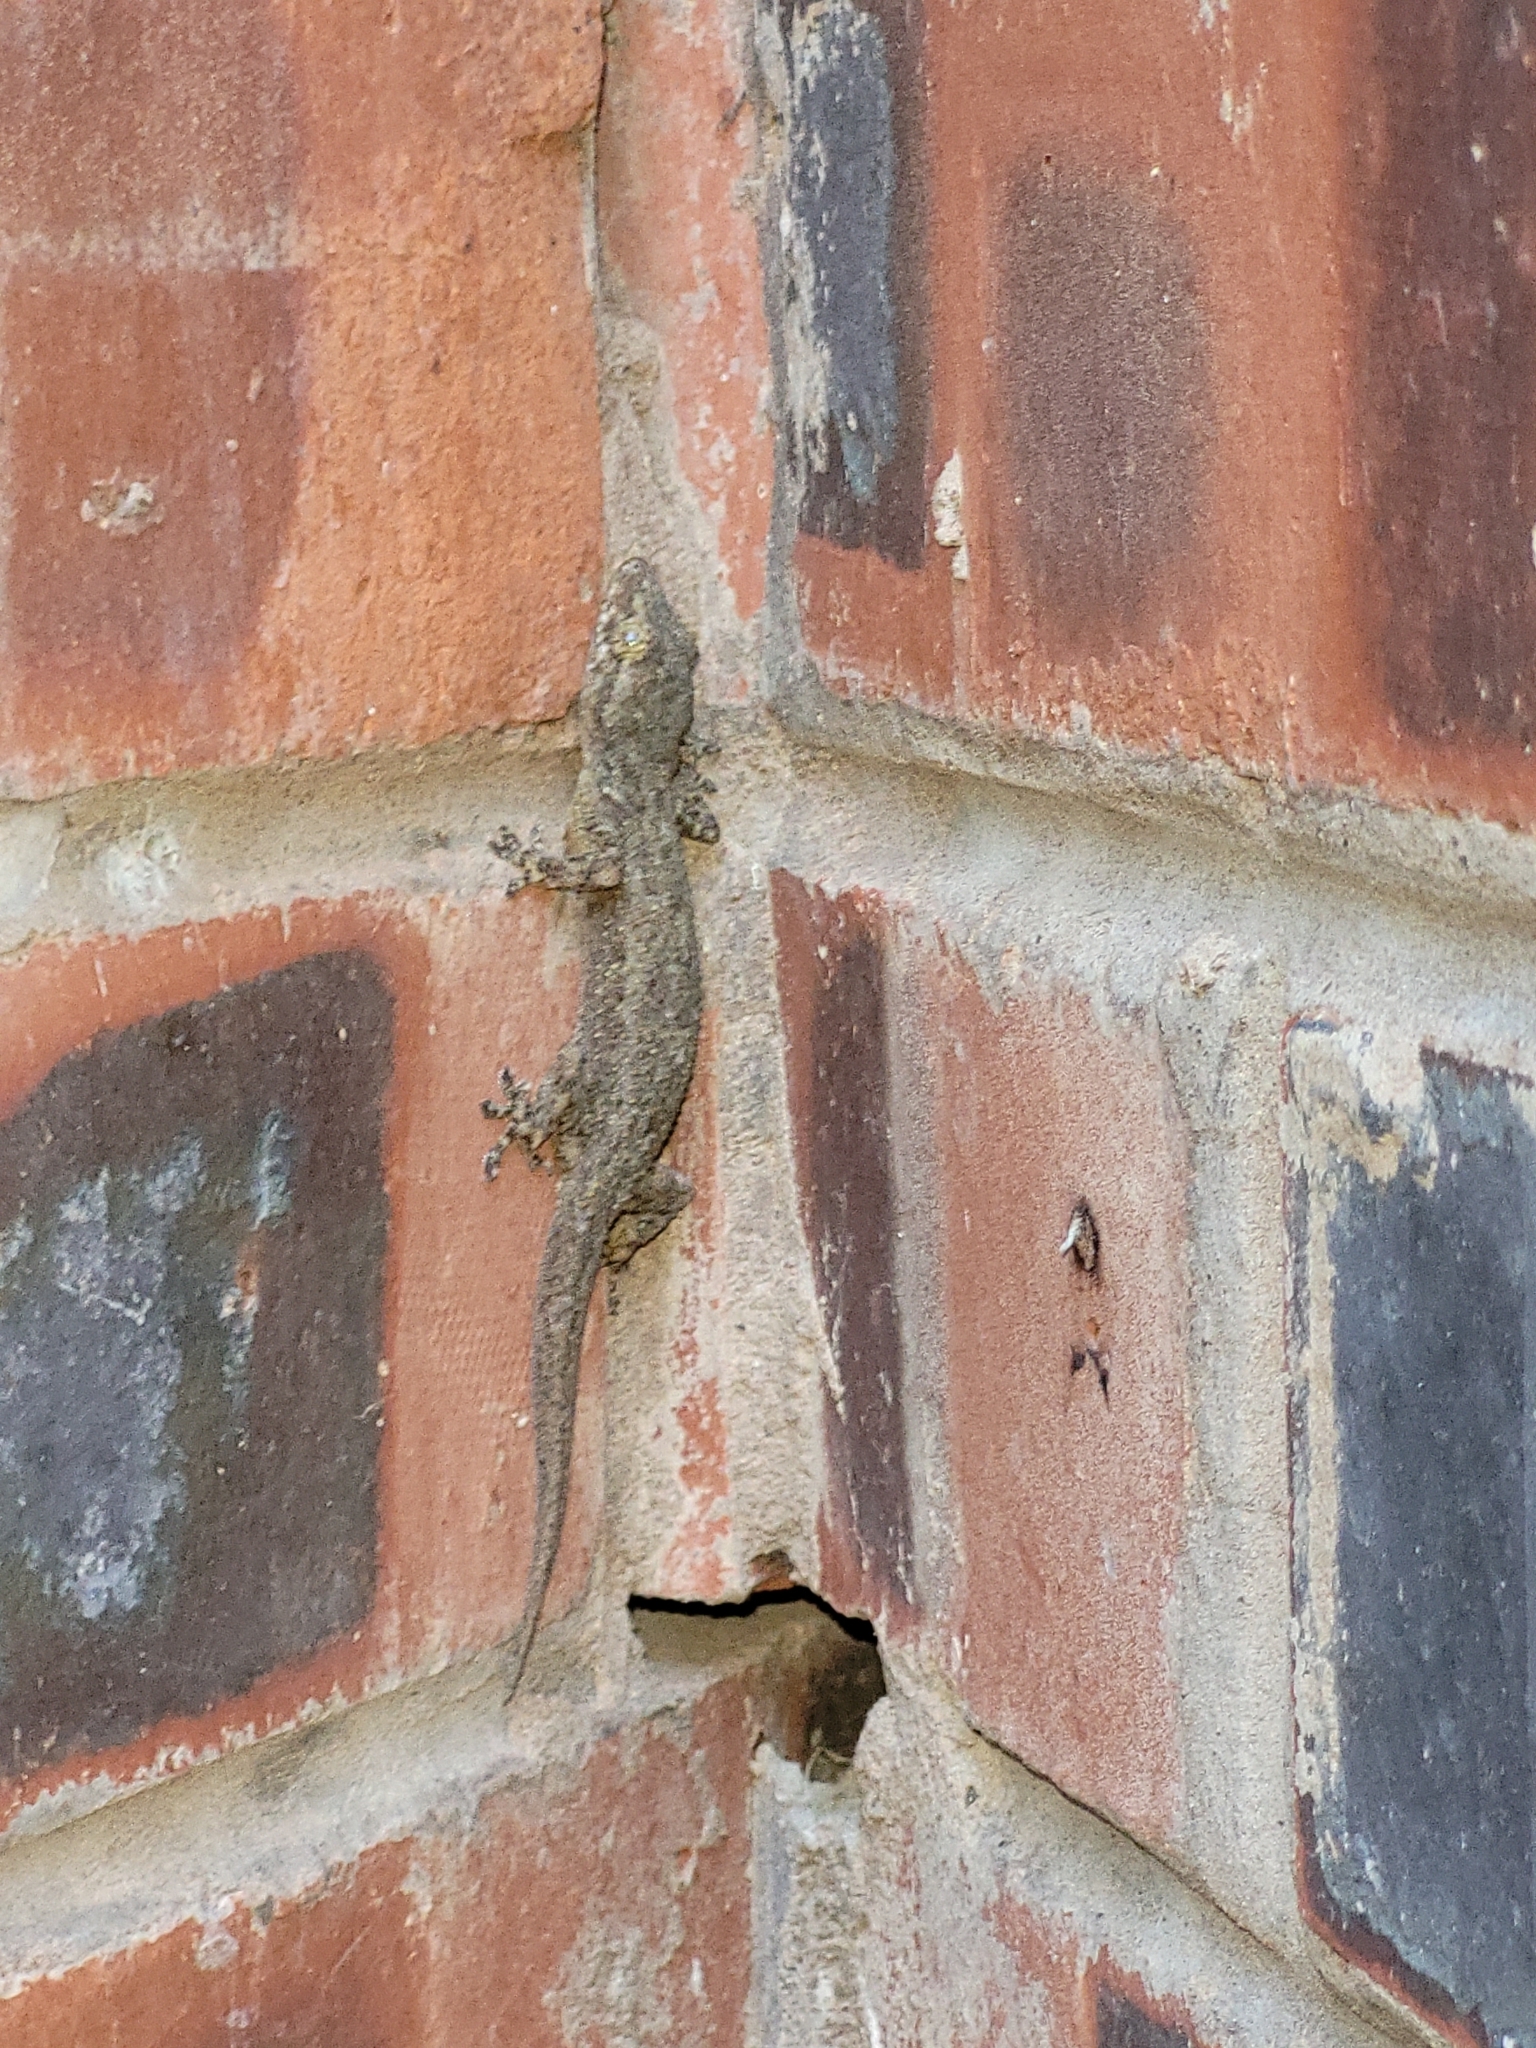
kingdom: Animalia
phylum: Chordata
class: Squamata
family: Gekkonidae
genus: Hemidactylus
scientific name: Hemidactylus mabouia
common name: House gecko
